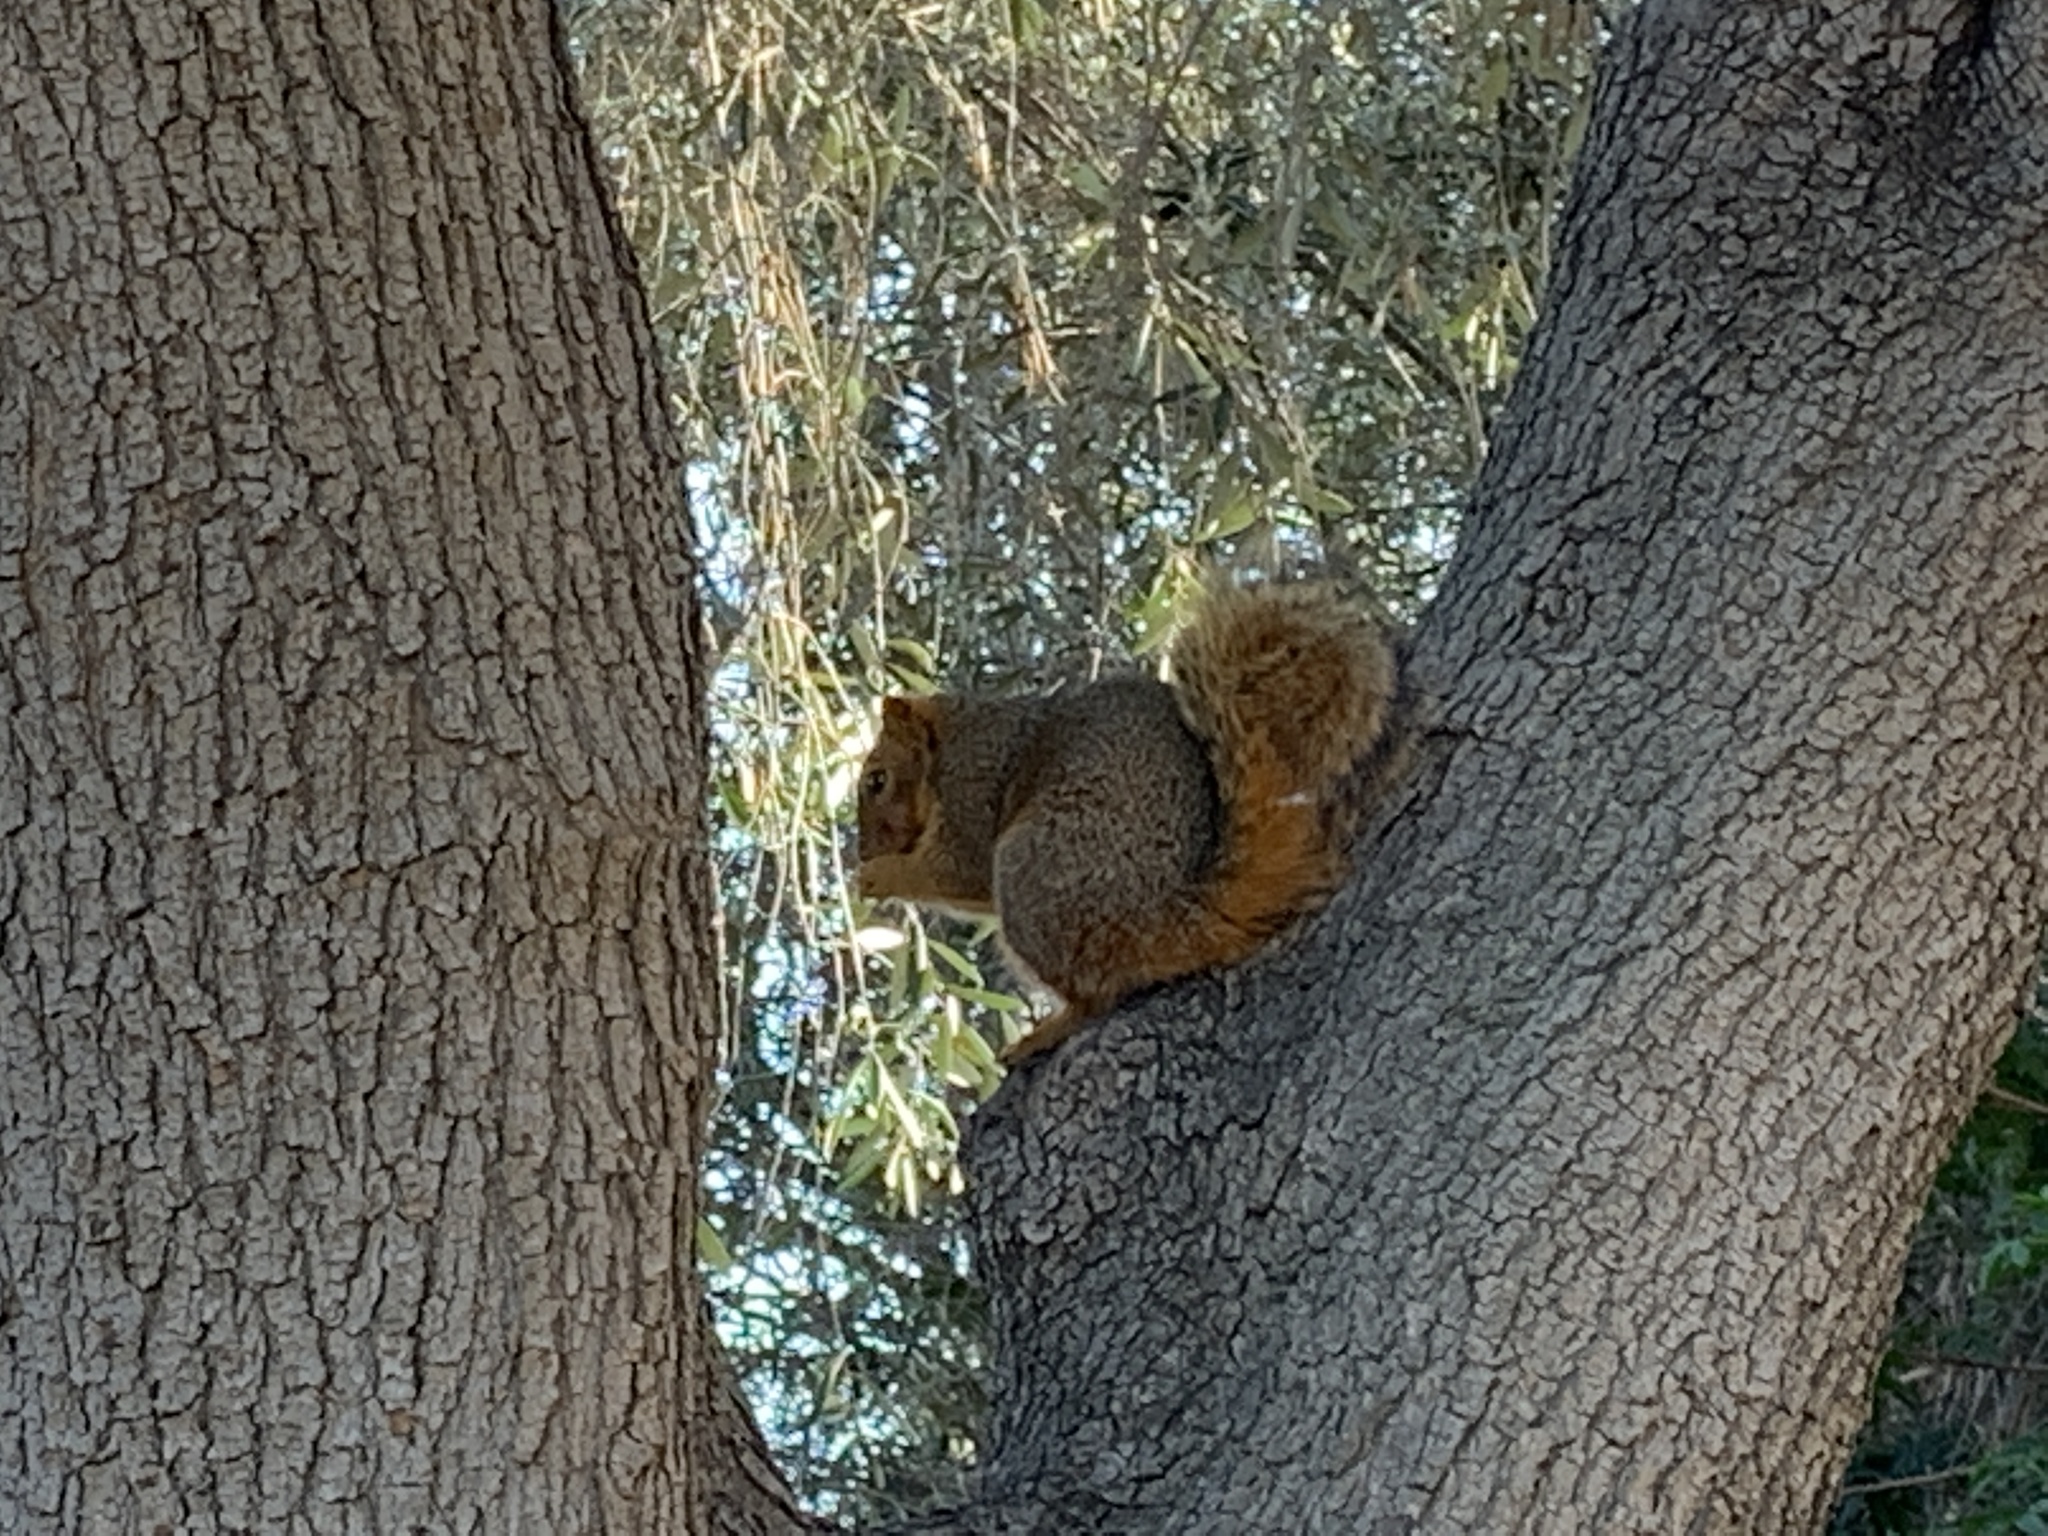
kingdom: Animalia
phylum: Chordata
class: Mammalia
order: Rodentia
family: Sciuridae
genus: Sciurus
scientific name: Sciurus niger
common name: Fox squirrel
